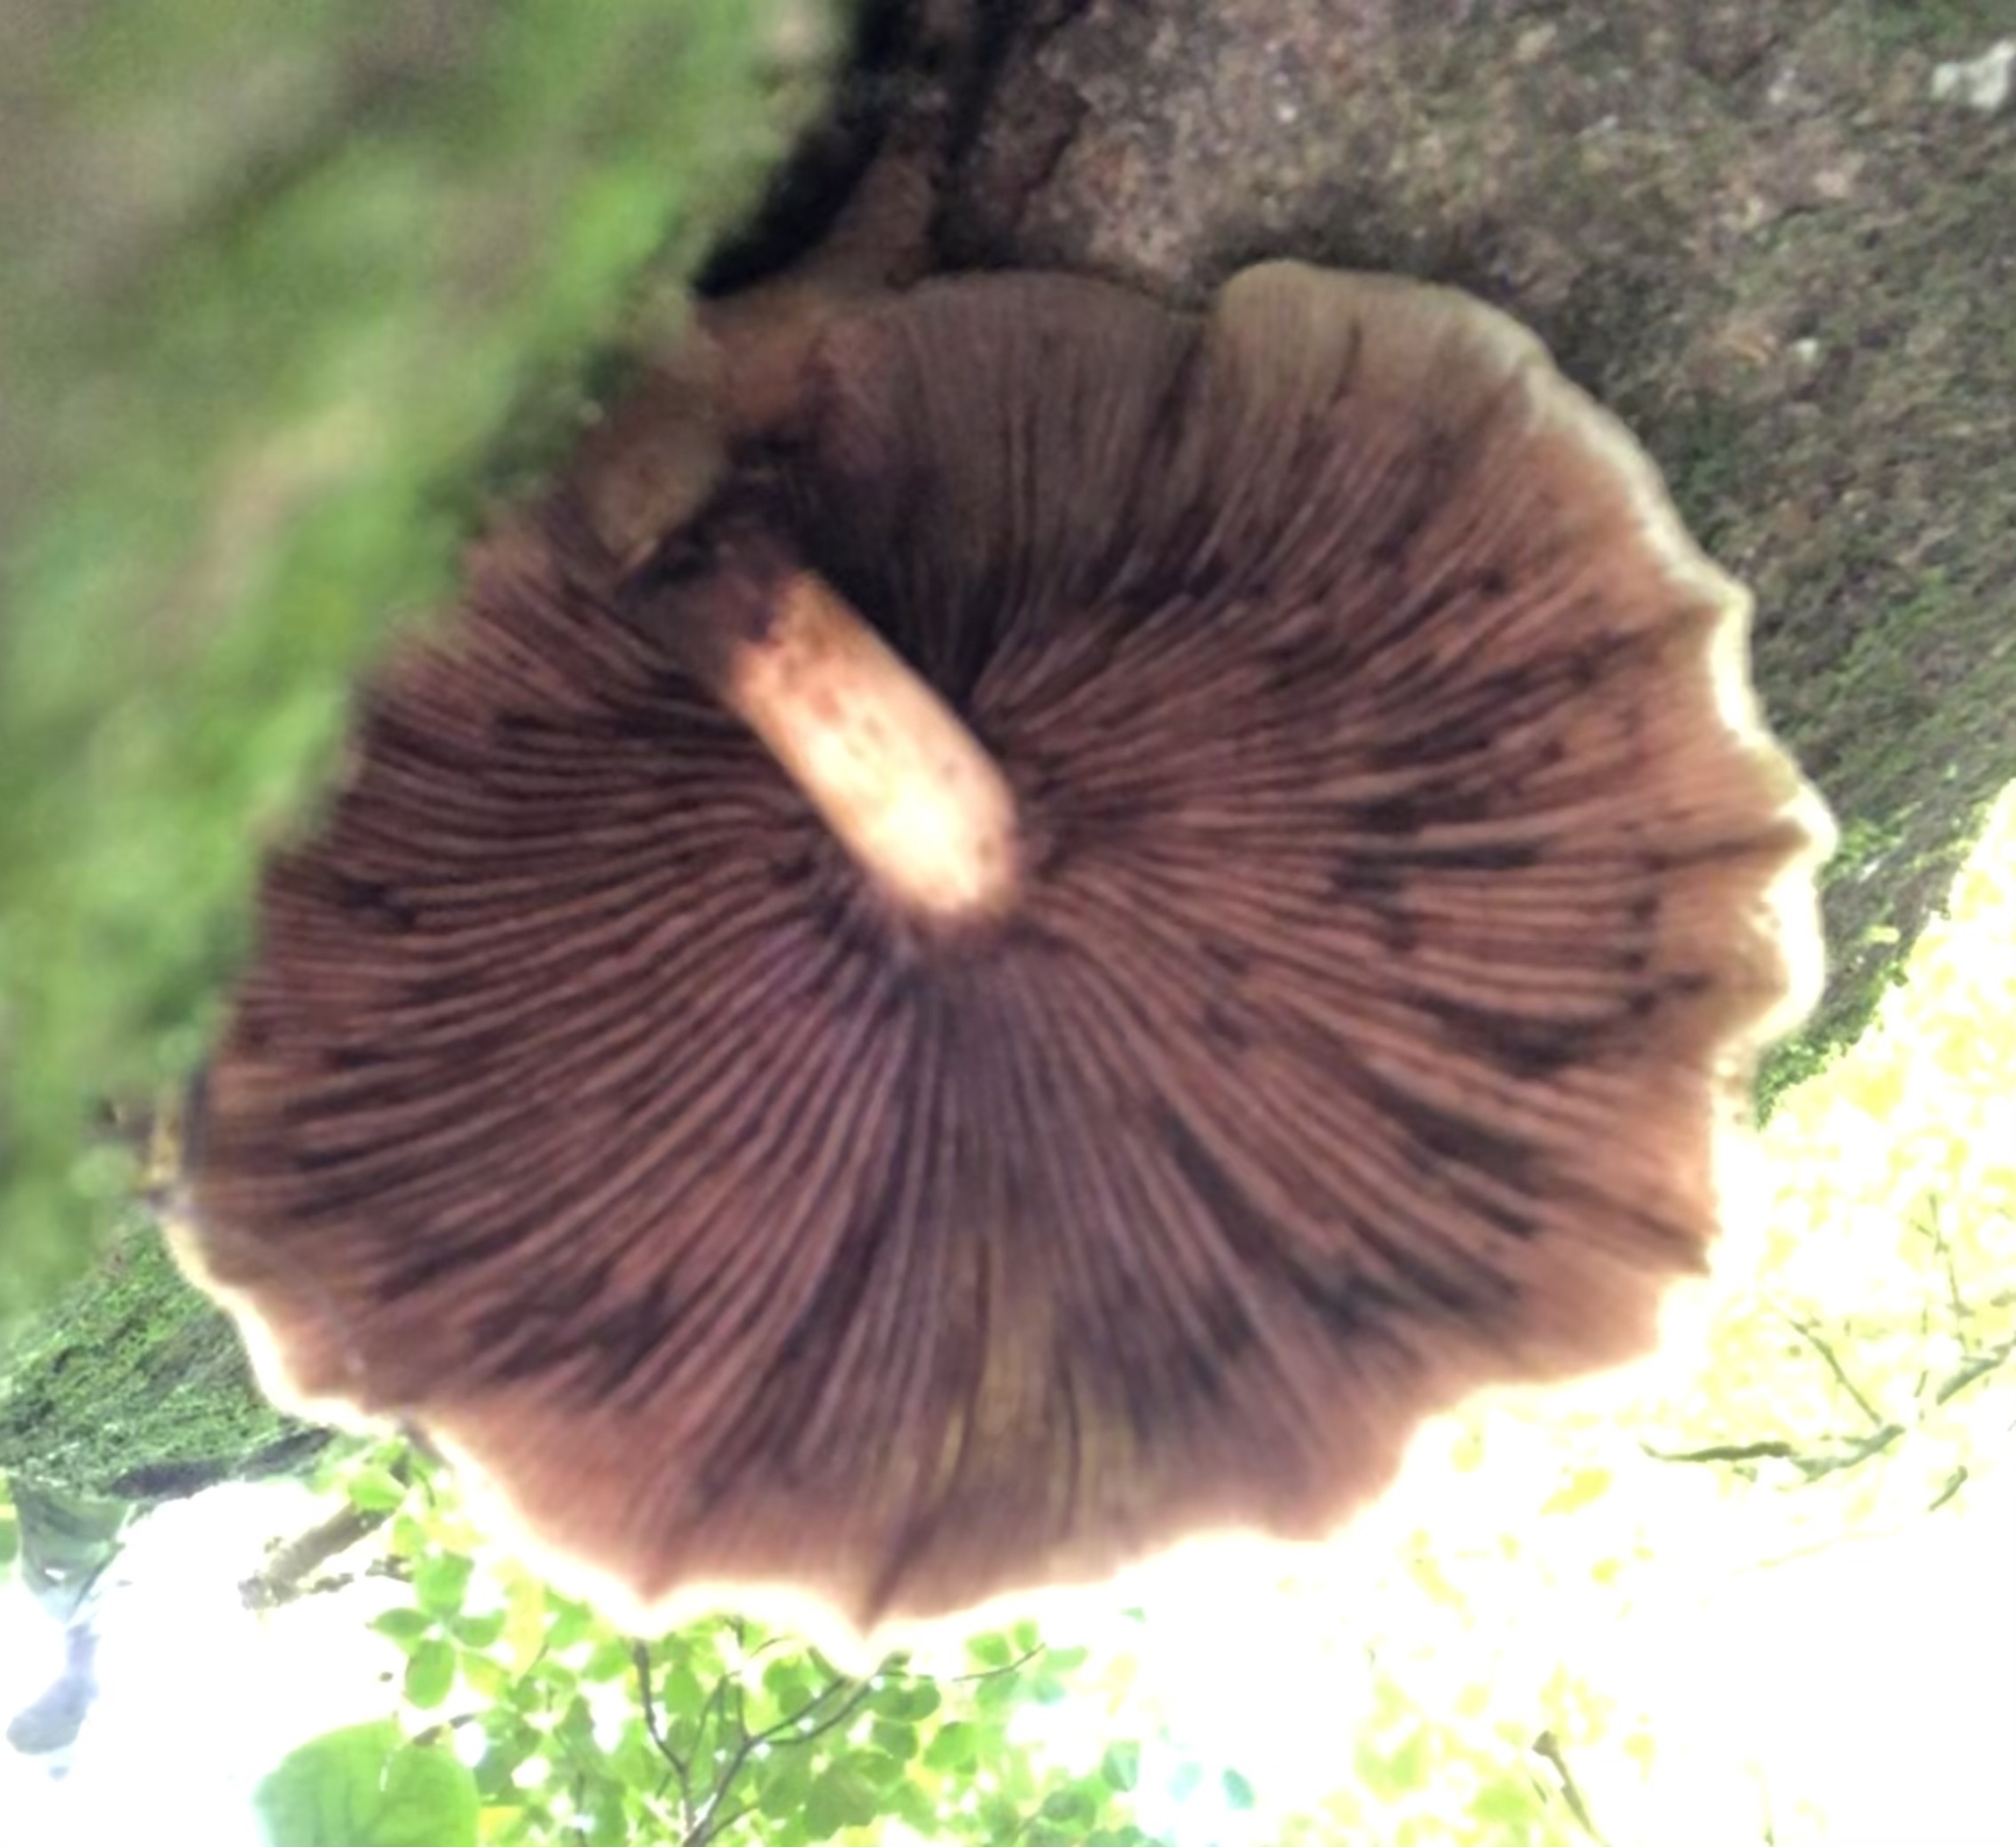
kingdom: Fungi
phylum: Basidiomycota
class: Agaricomycetes
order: Agaricales
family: Tubariaceae
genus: Cyclocybe
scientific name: Cyclocybe parasitica
